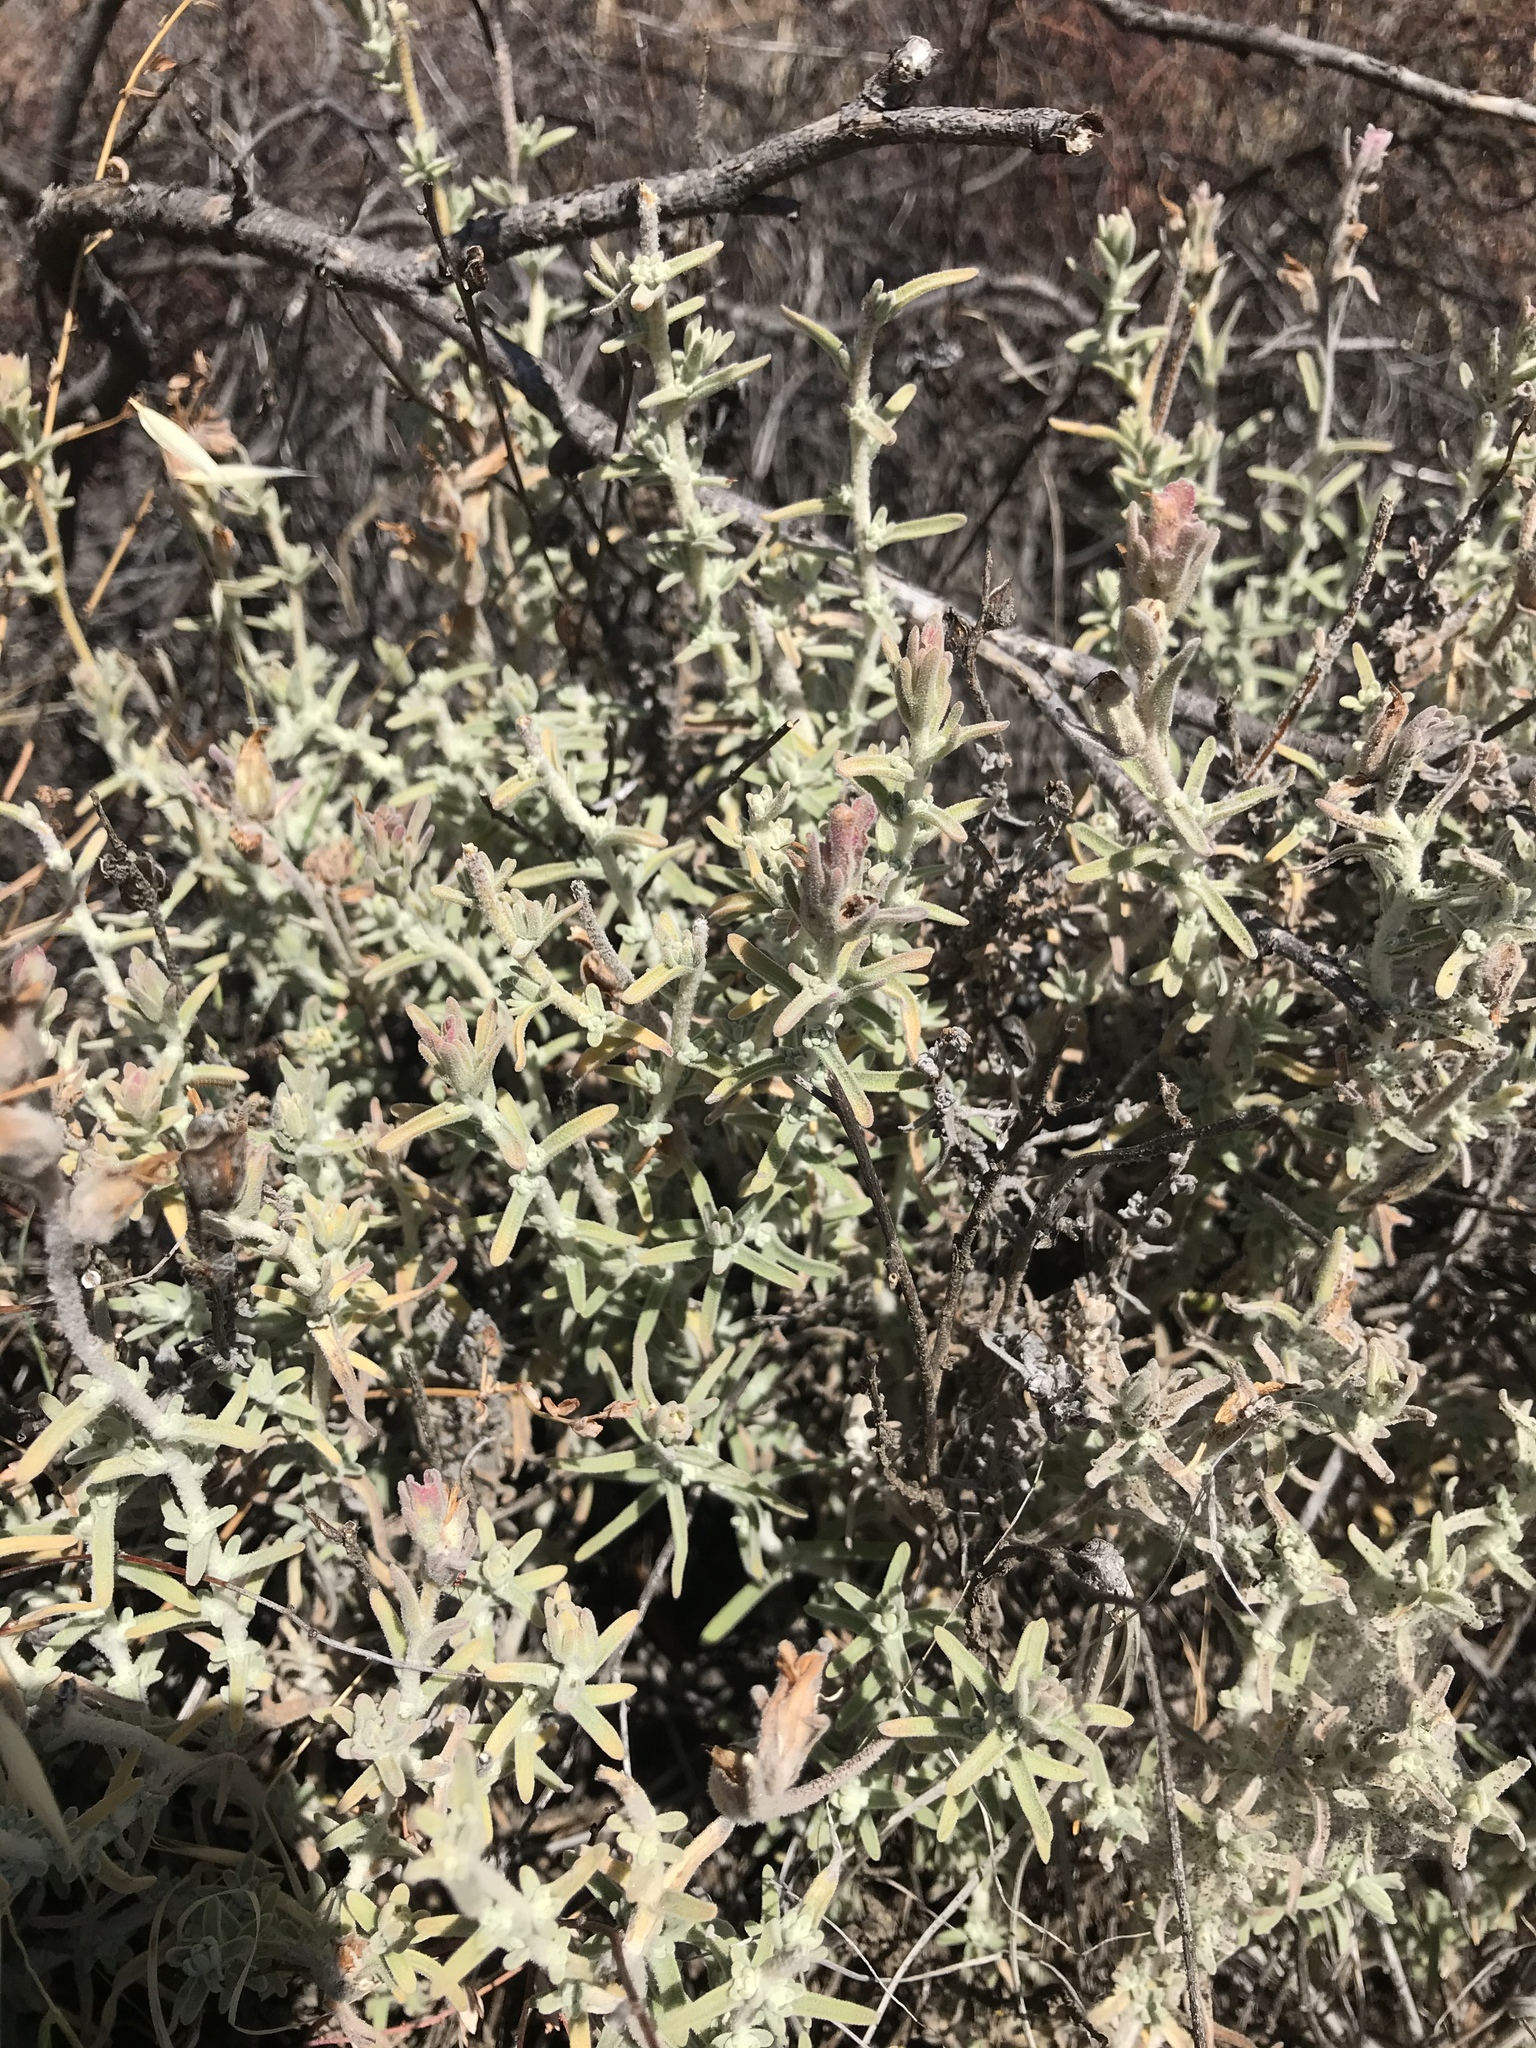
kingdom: Plantae
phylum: Tracheophyta
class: Magnoliopsida
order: Lamiales
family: Orobanchaceae
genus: Castilleja
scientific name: Castilleja foliolosa
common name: Woolly indian paintbrush
